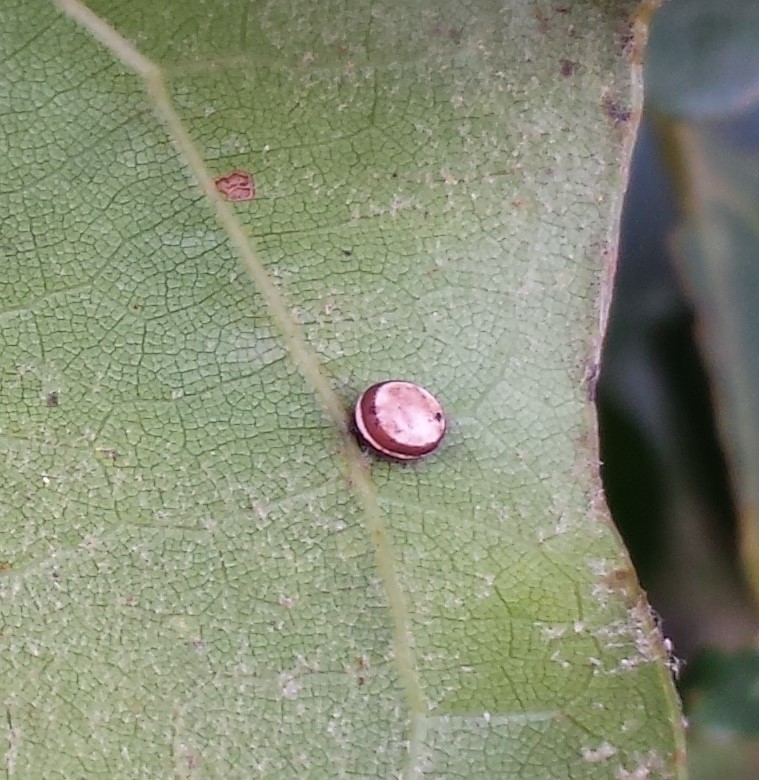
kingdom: Animalia
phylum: Arthropoda
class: Insecta
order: Lepidoptera
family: Saturniidae
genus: Antheraea
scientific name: Antheraea polyphemus
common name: Polyphemus moth
